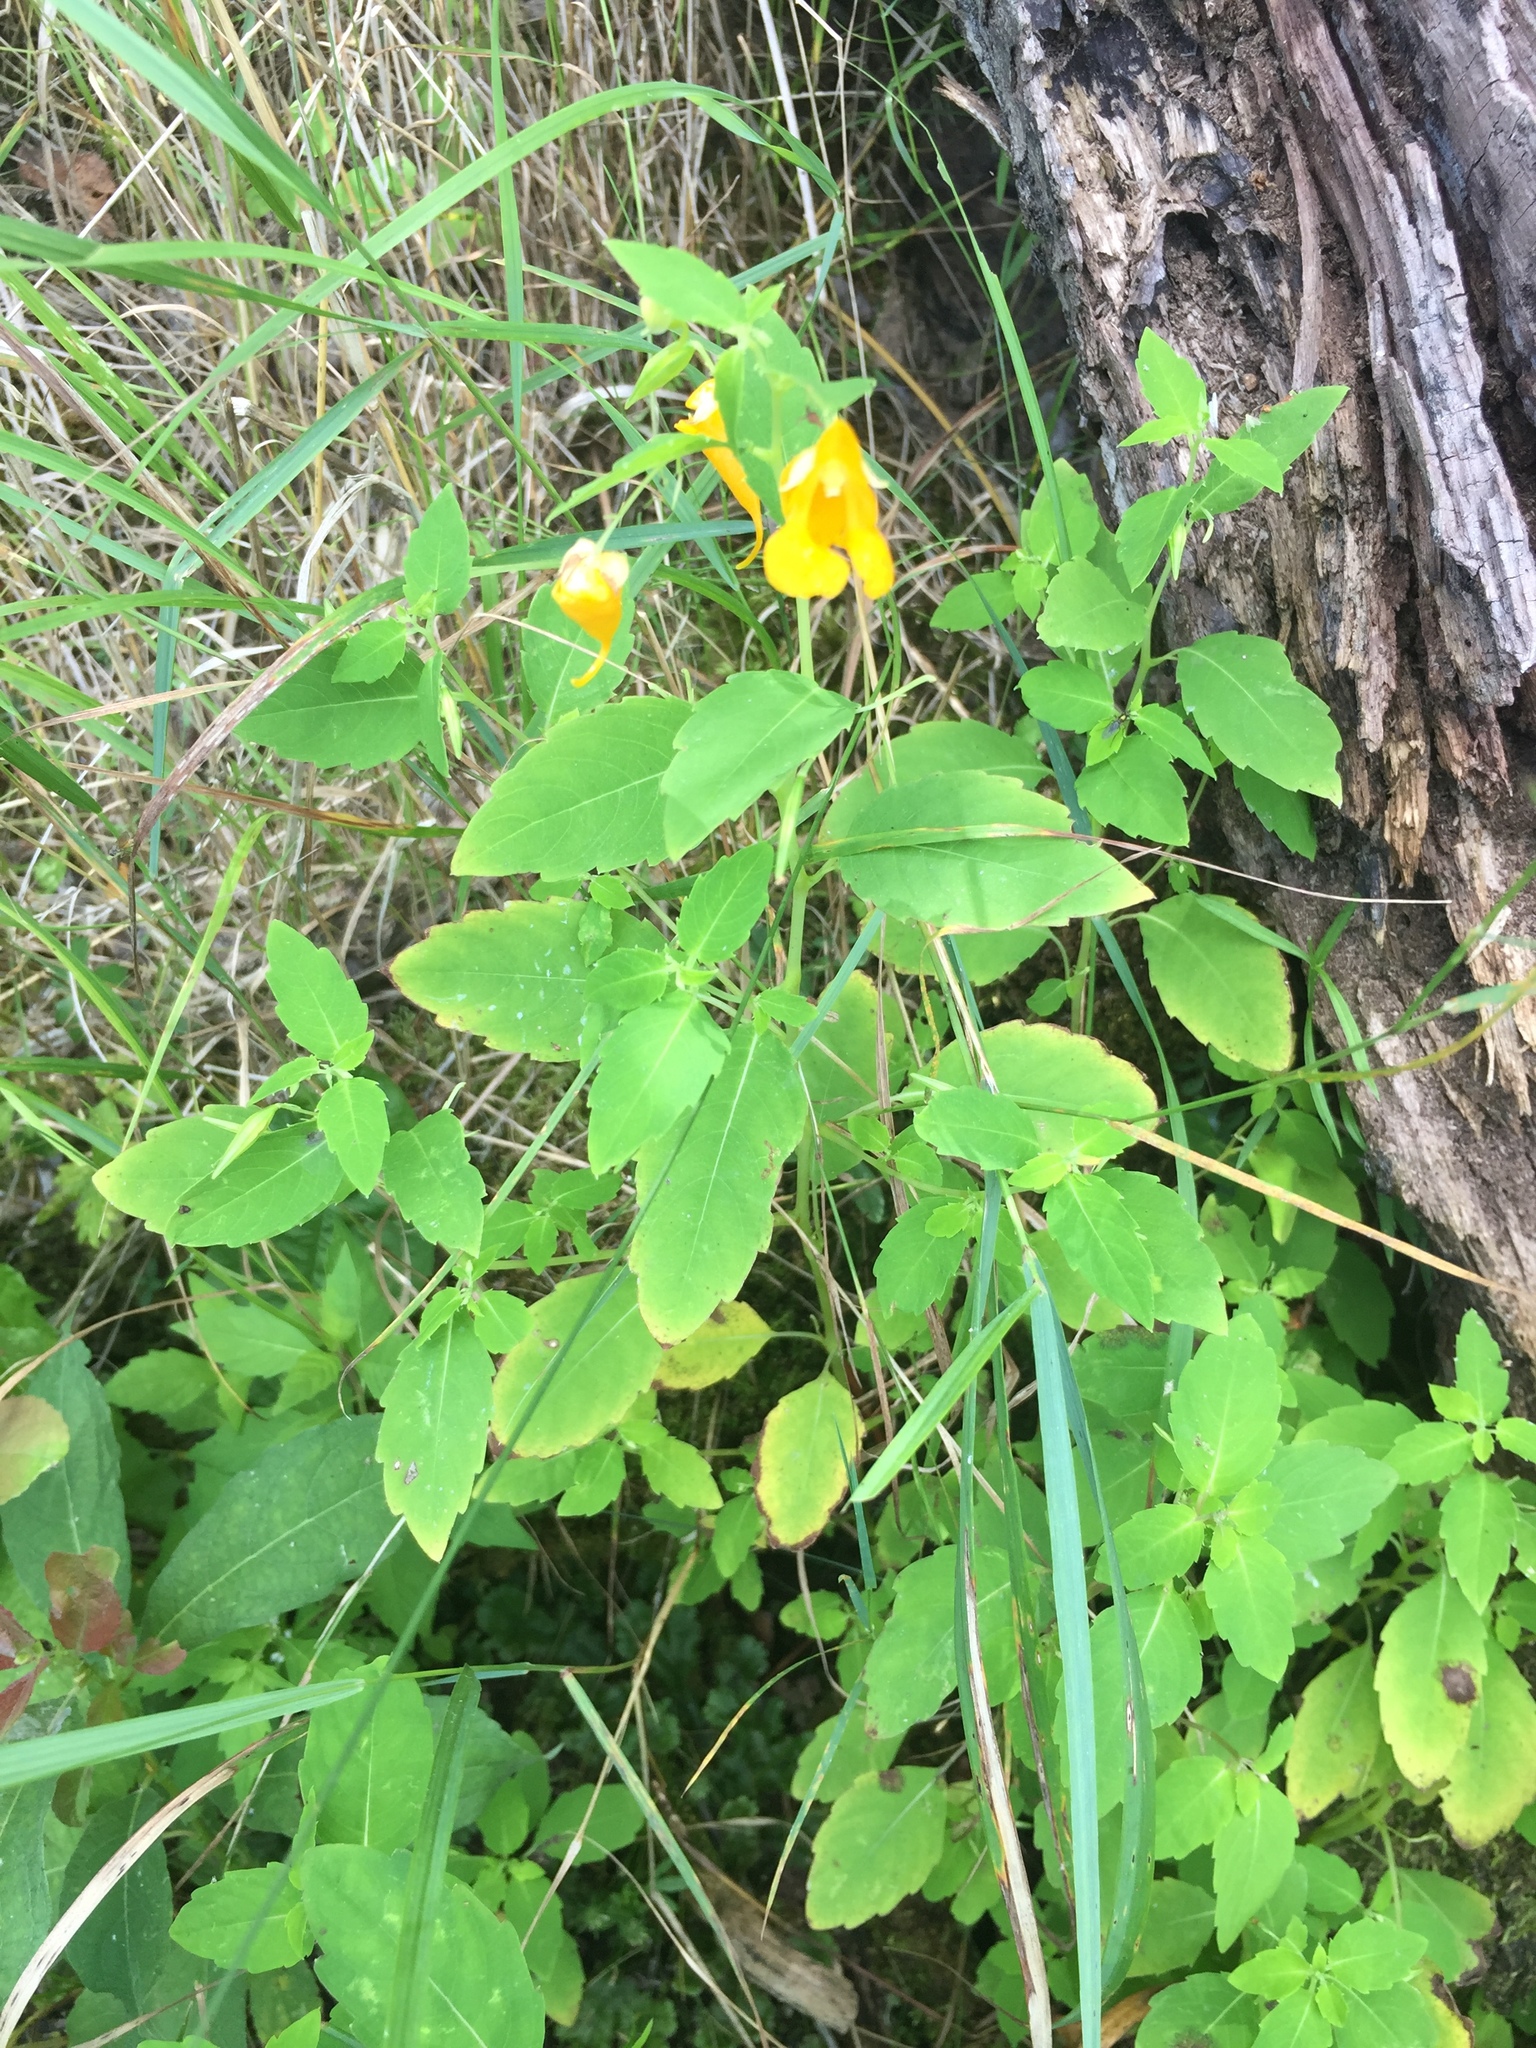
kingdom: Plantae
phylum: Tracheophyta
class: Magnoliopsida
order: Ericales
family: Balsaminaceae
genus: Impatiens
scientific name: Impatiens capensis
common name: Orange balsam
